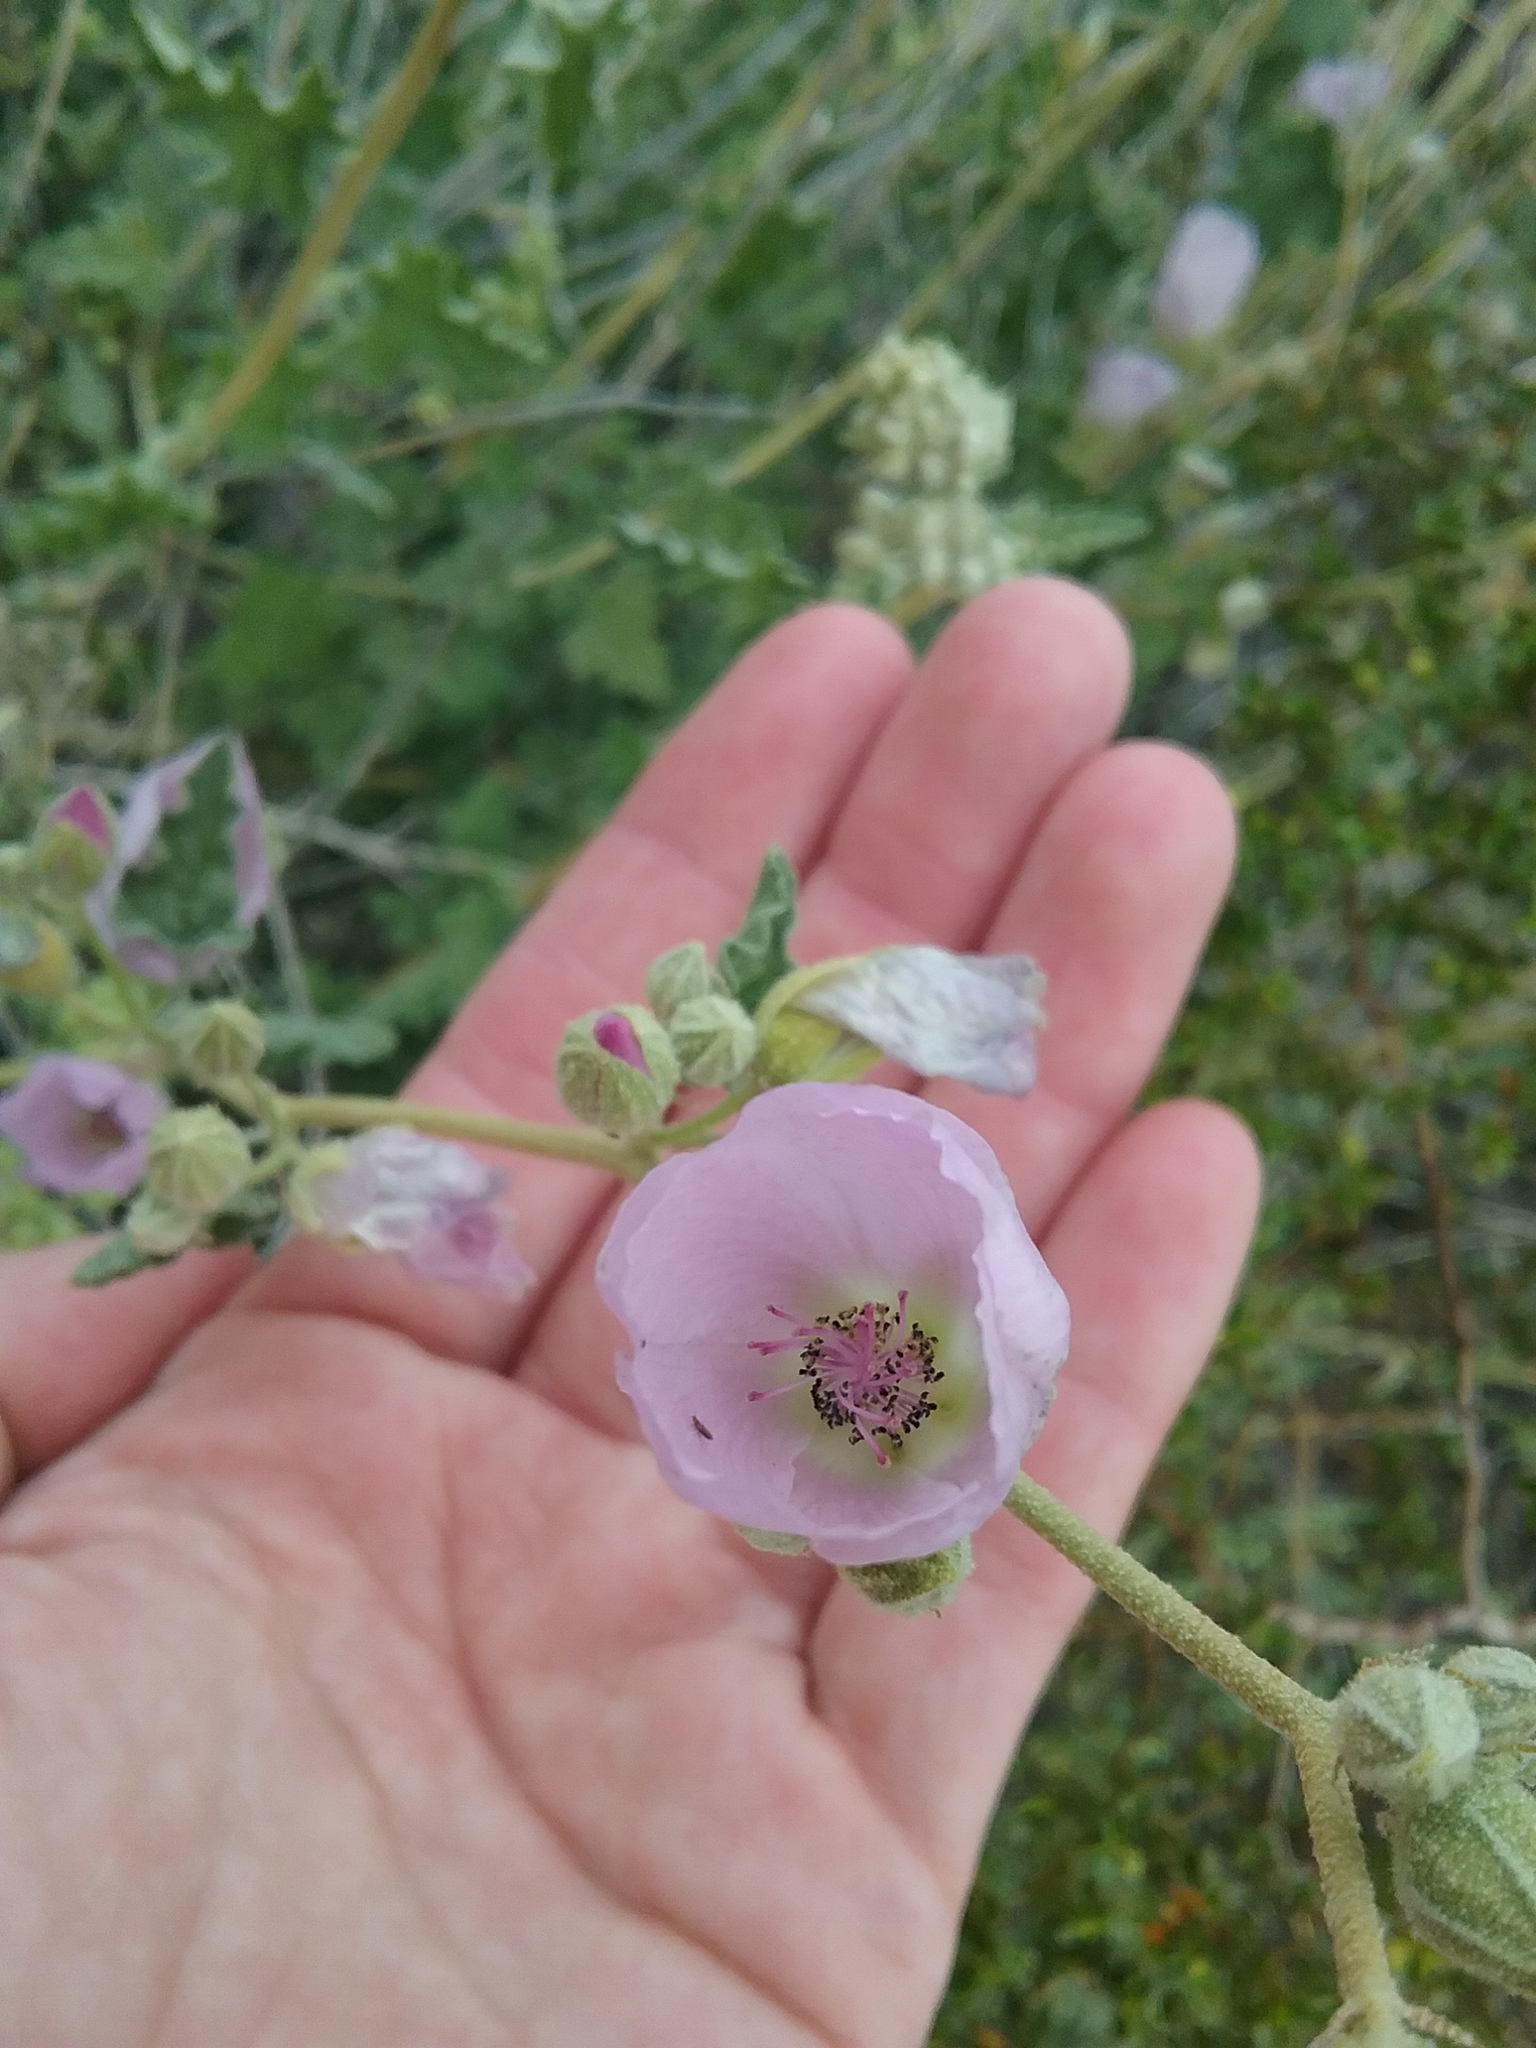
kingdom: Plantae
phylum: Tracheophyta
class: Magnoliopsida
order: Malvales
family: Malvaceae
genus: Sphaeralcea
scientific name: Sphaeralcea ambigua
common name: Apricot globe-mallow
